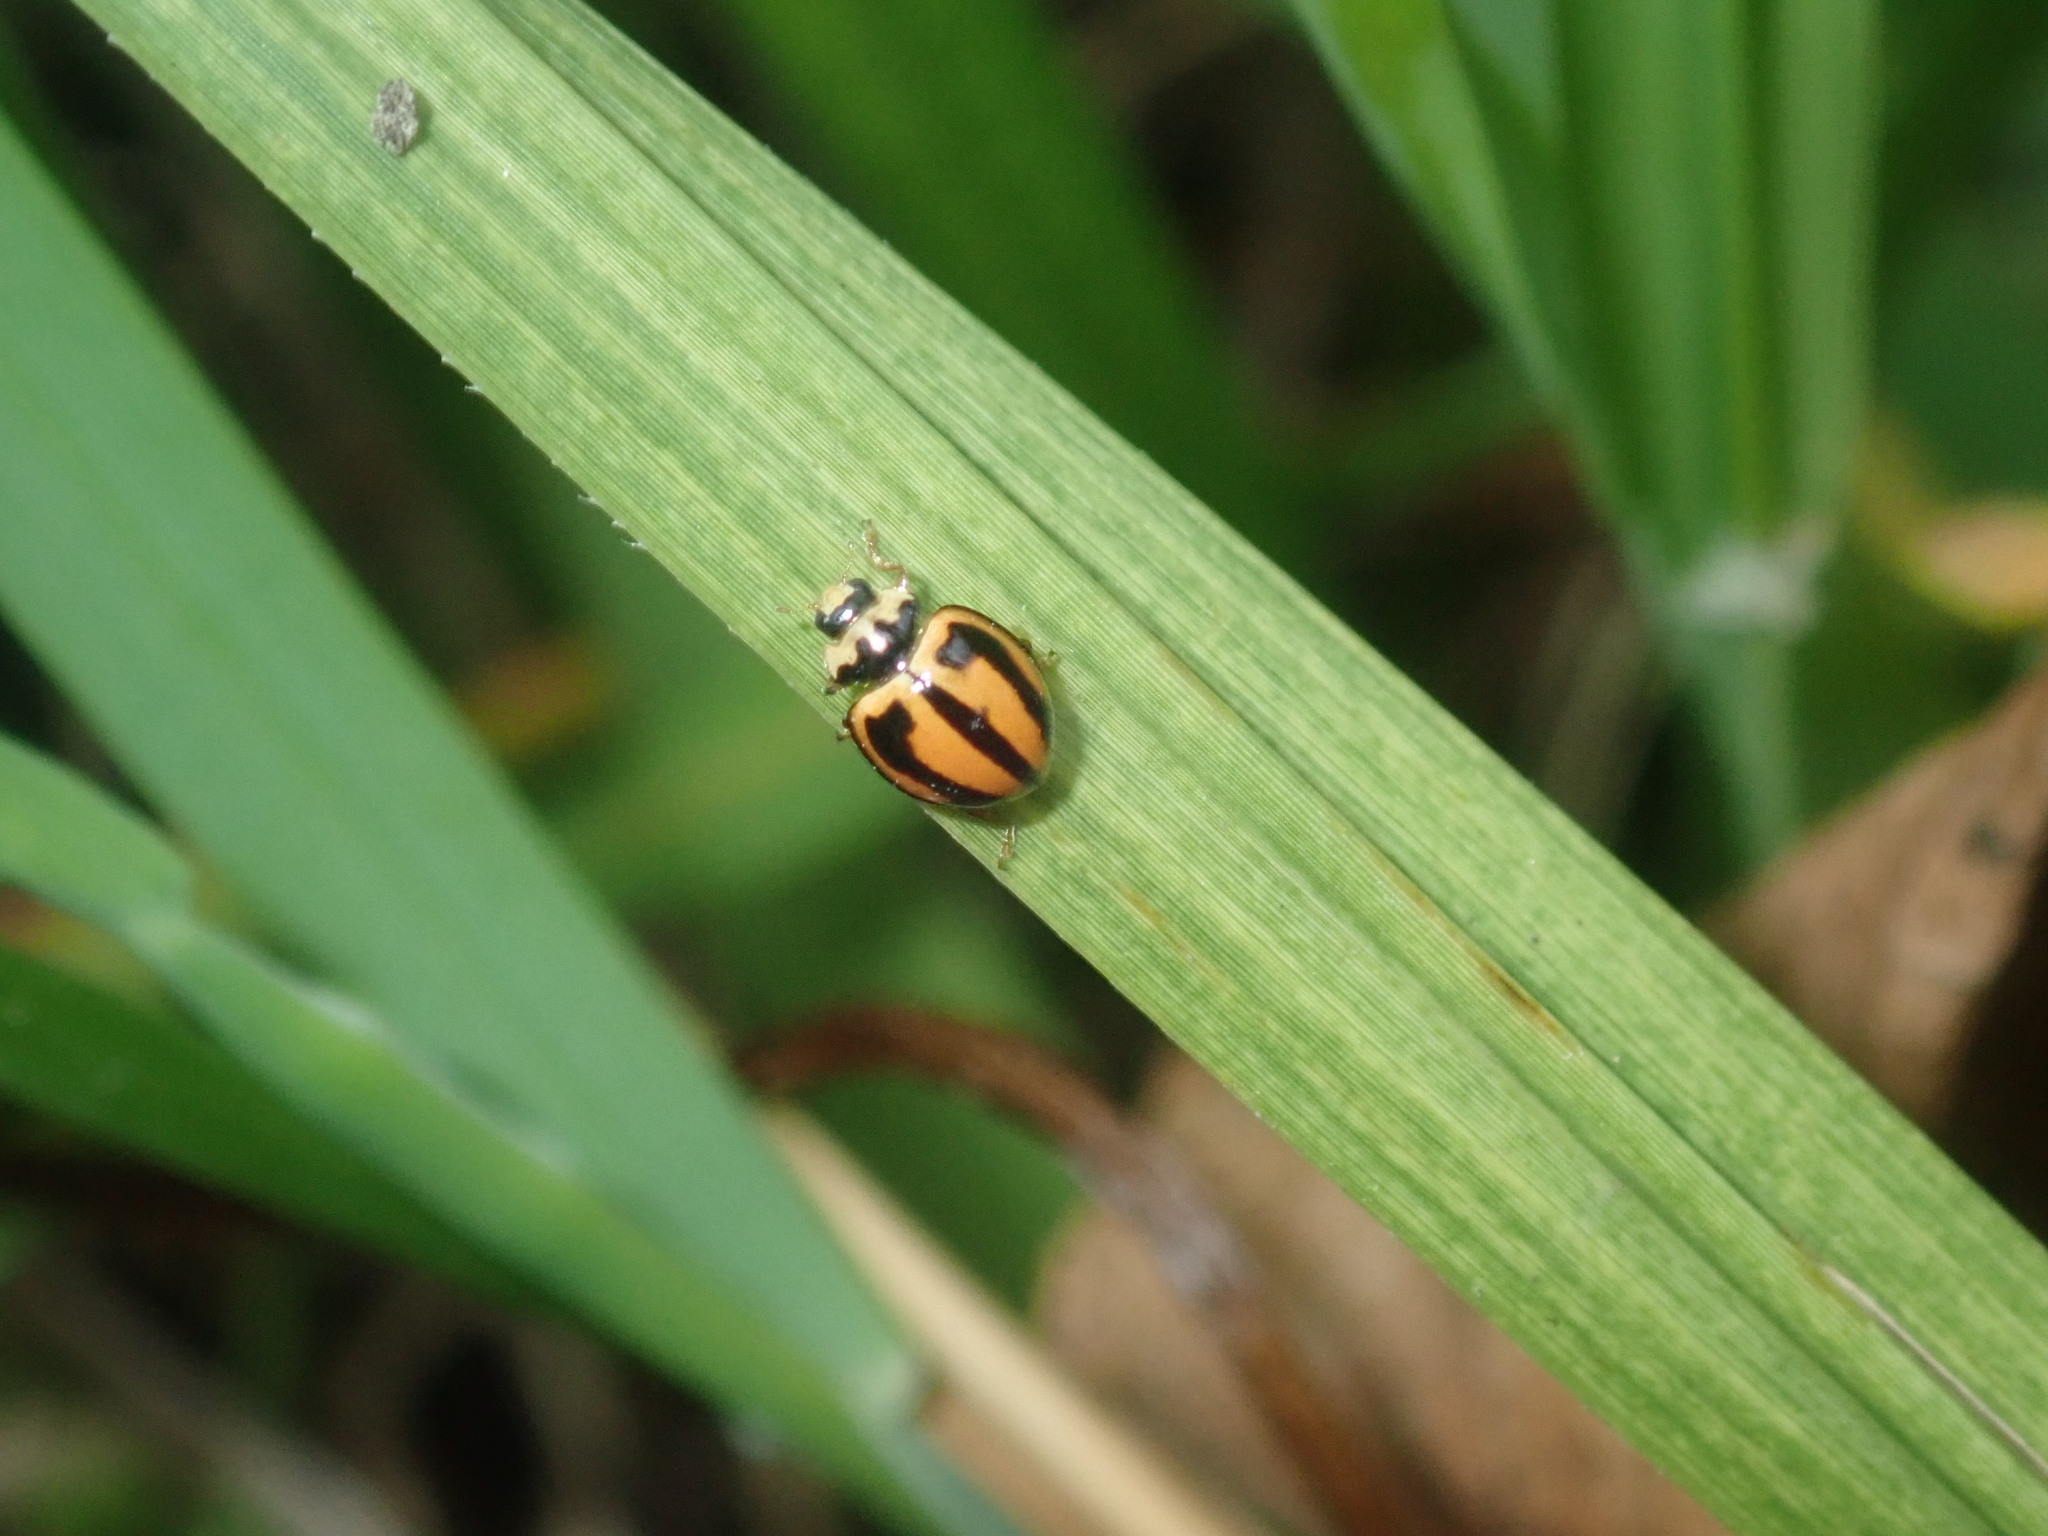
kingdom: Animalia
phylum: Arthropoda
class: Insecta
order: Coleoptera
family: Coccinellidae
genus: Micraspis
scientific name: Micraspis frenata
